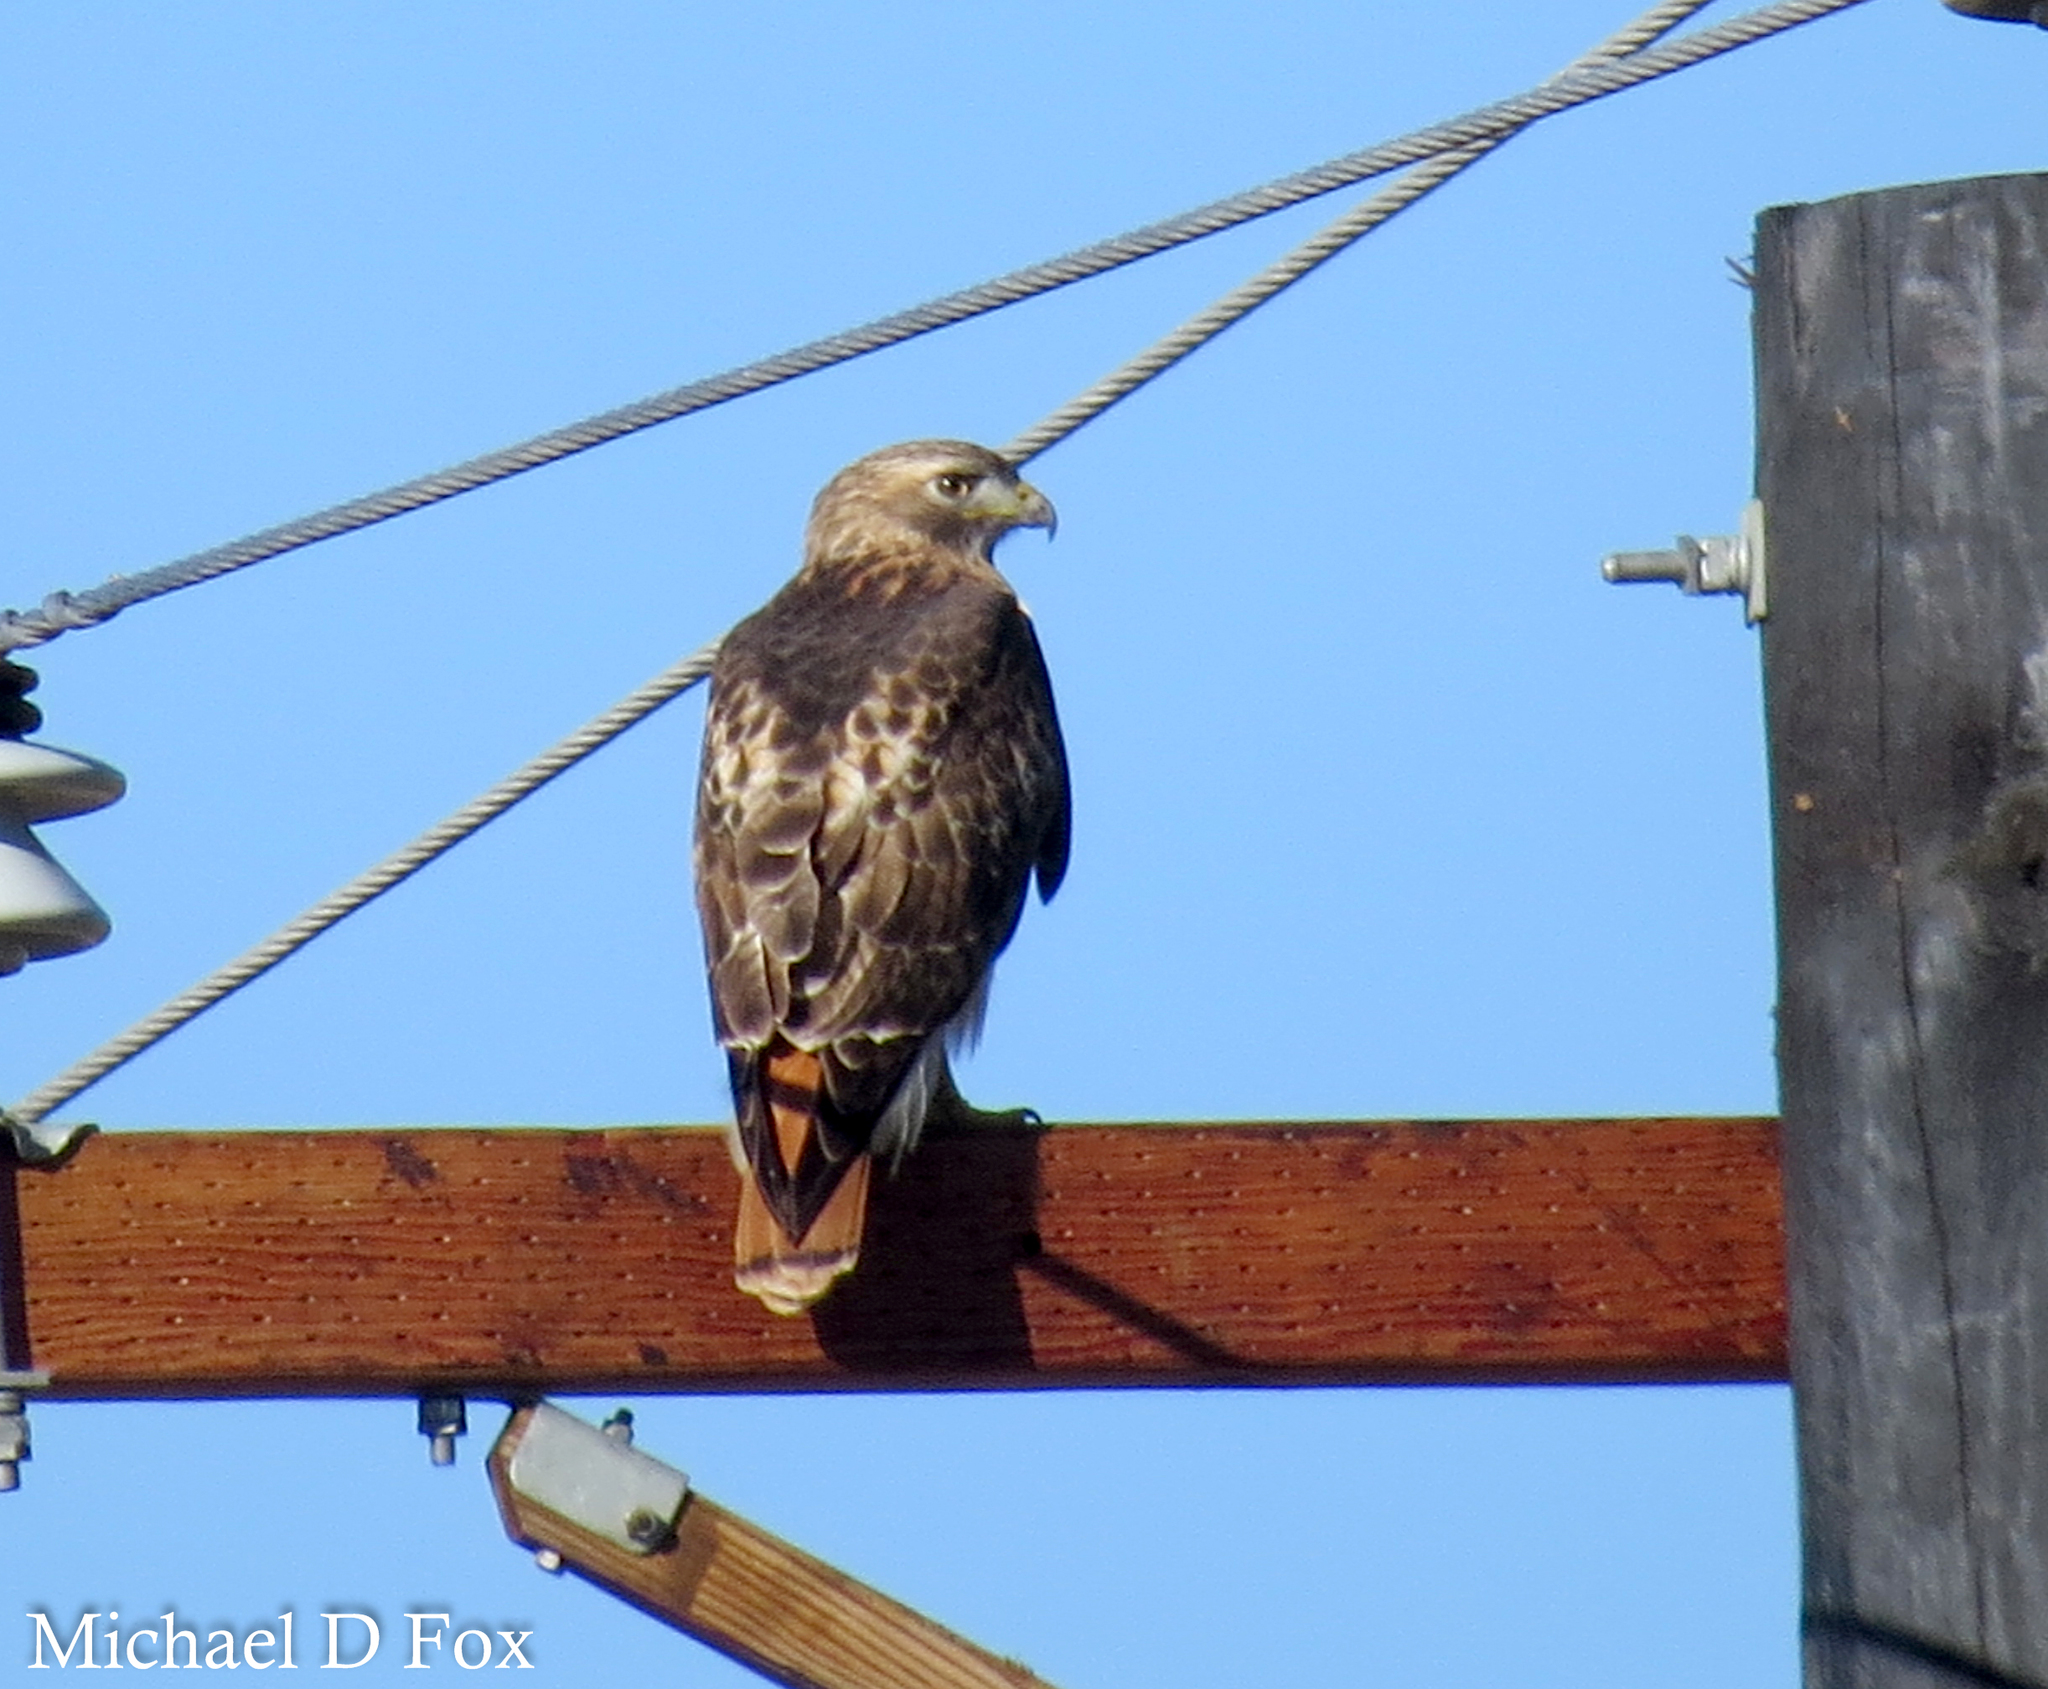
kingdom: Animalia
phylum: Chordata
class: Aves
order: Accipitriformes
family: Accipitridae
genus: Buteo
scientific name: Buteo jamaicensis
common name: Red-tailed hawk
